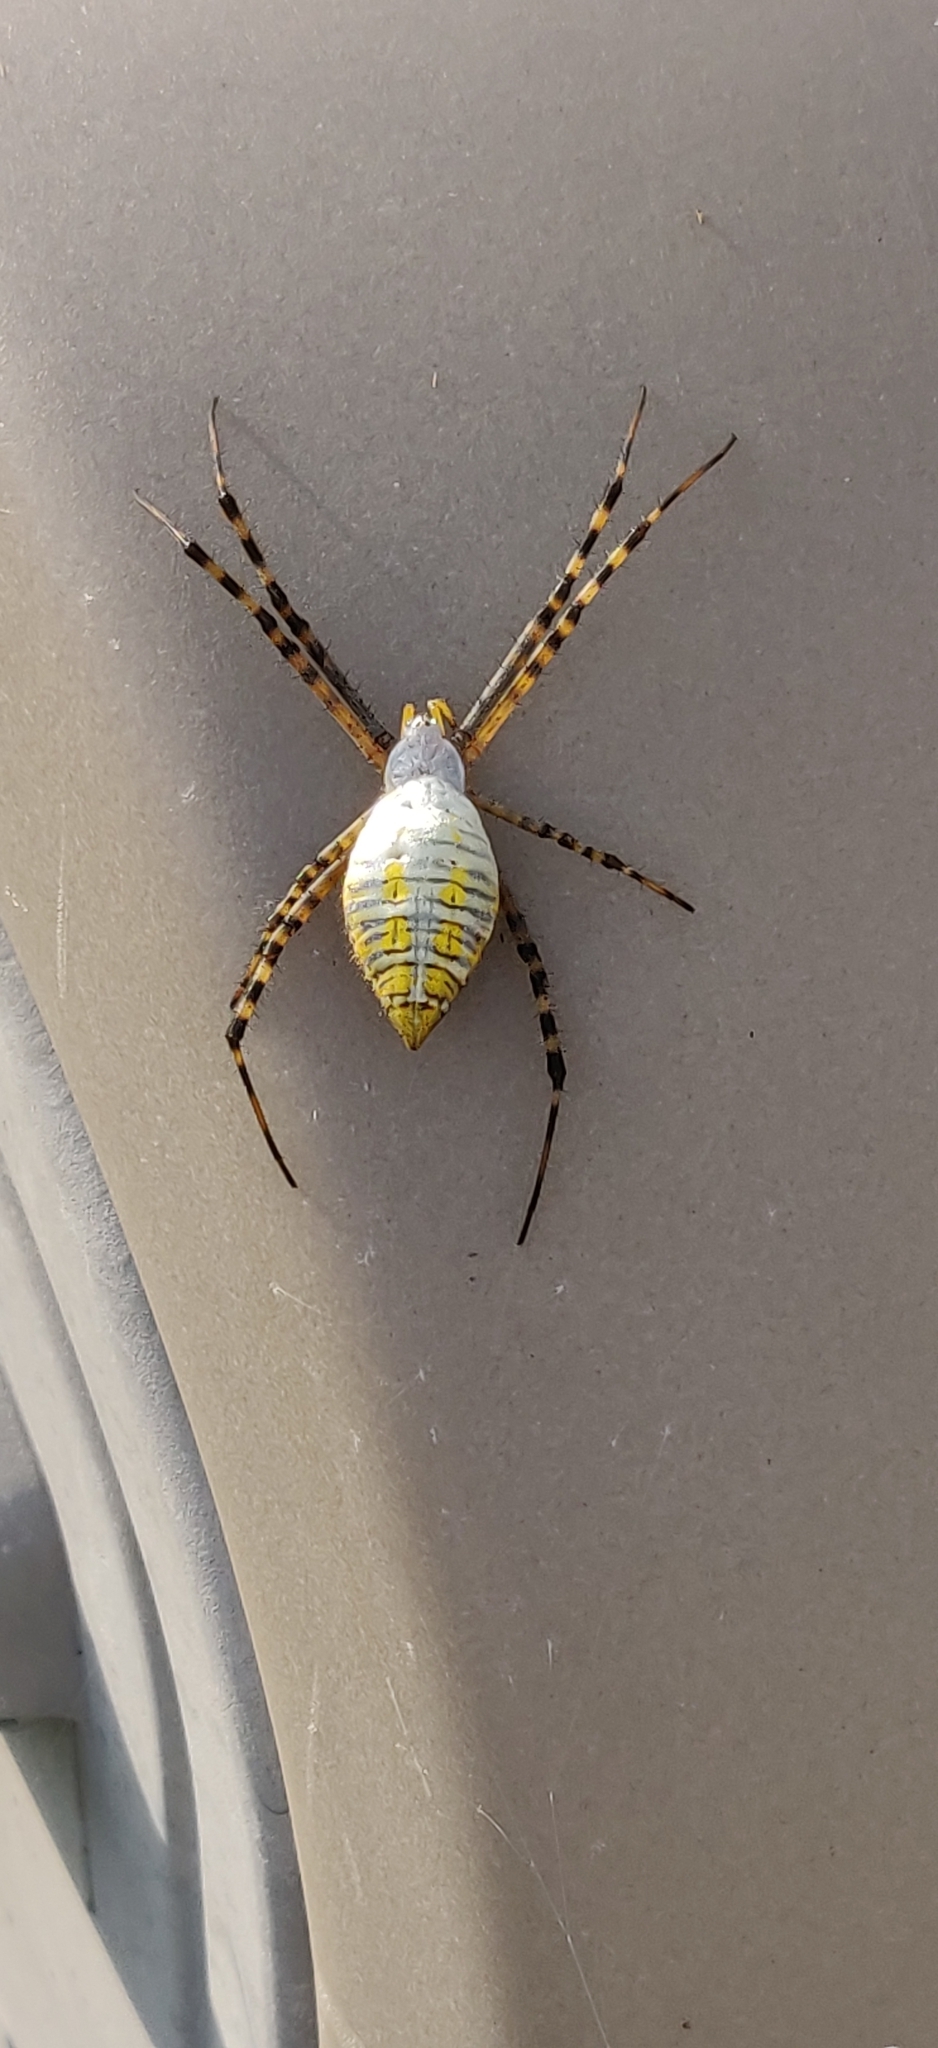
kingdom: Animalia
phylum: Arthropoda
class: Arachnida
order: Araneae
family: Araneidae
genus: Argiope
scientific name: Argiope trifasciata
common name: Banded garden spider
